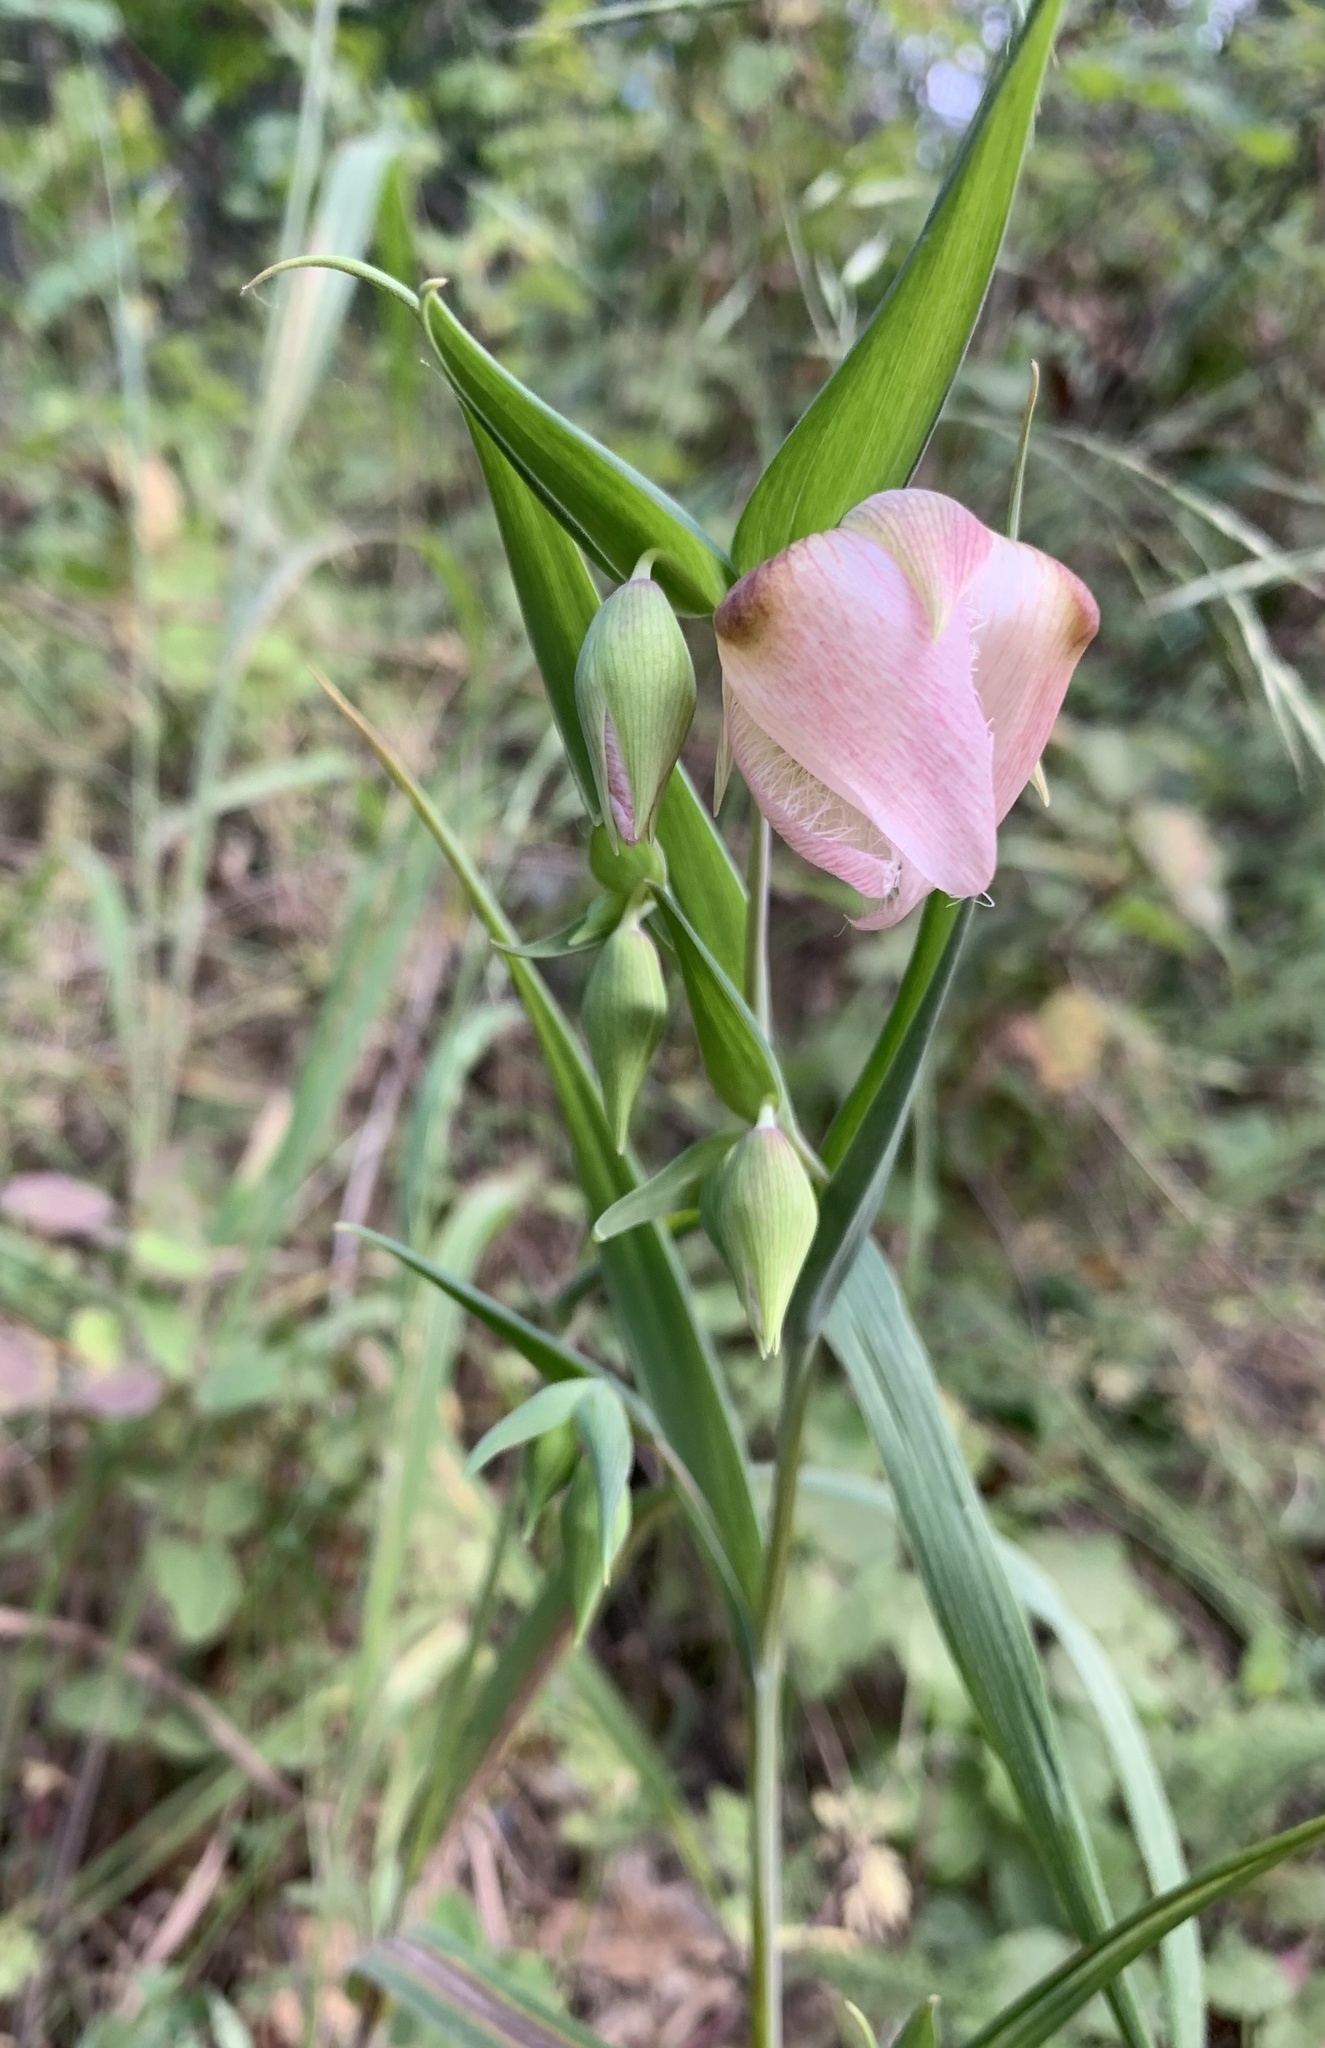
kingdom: Plantae
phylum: Tracheophyta
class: Liliopsida
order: Liliales
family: Liliaceae
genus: Calochortus
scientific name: Calochortus albus
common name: Fairy-lantern
